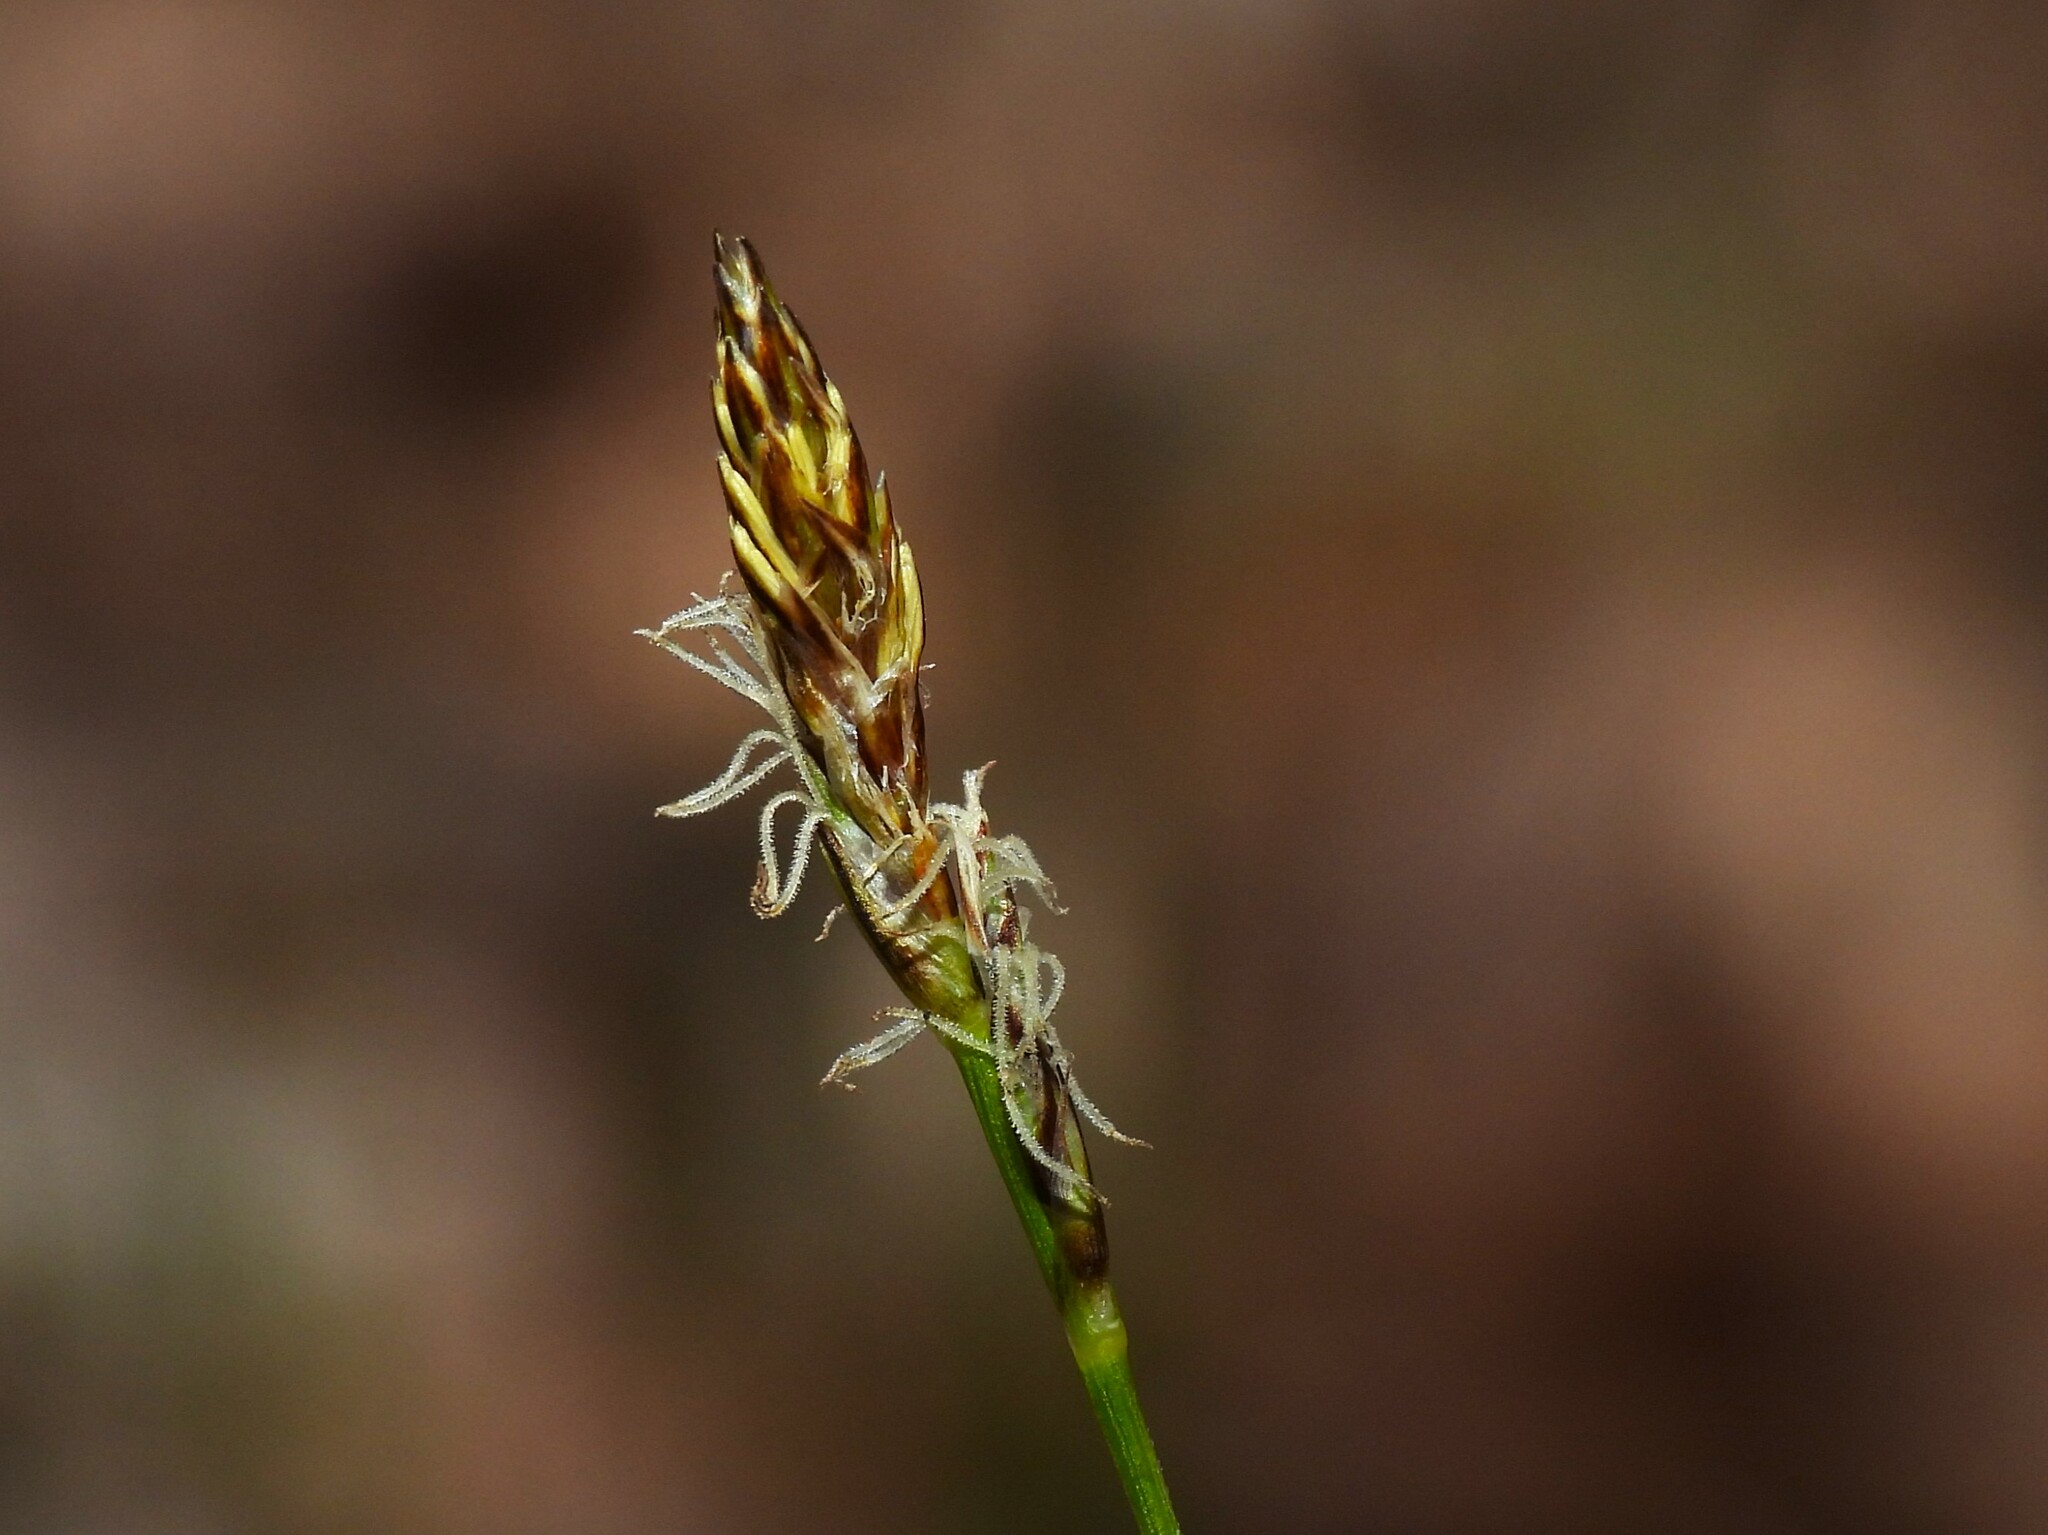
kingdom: Plantae
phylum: Tracheophyta
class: Liliopsida
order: Poales
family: Cyperaceae
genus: Carex
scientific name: Carex pensylvanica
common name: Common oak sedge
